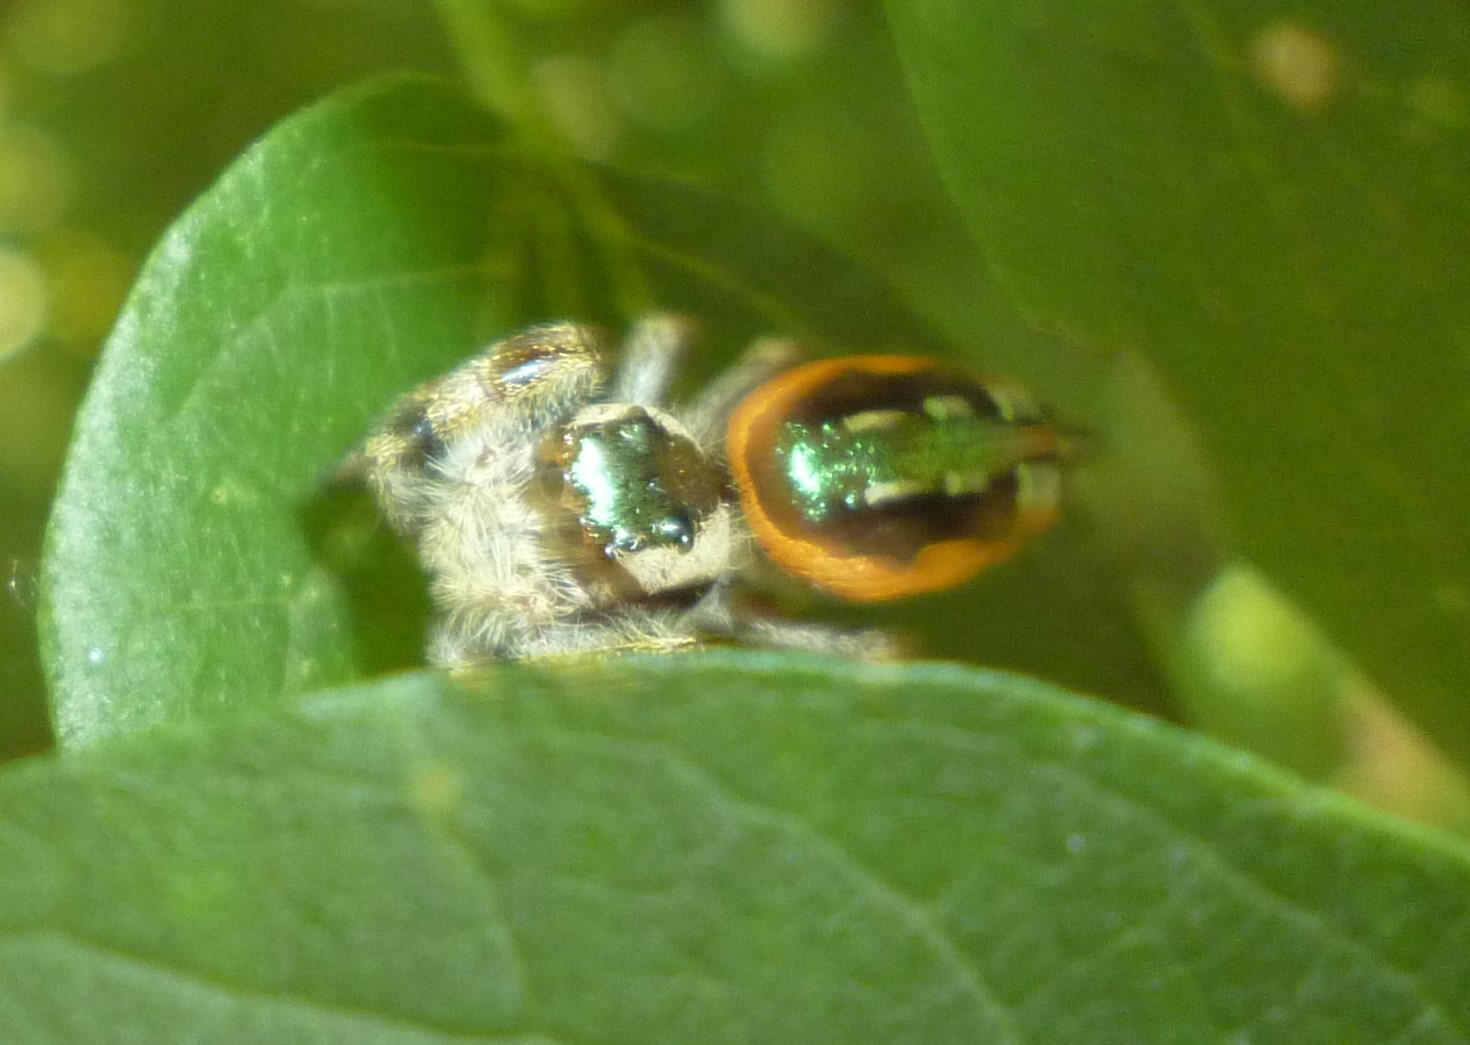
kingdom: Animalia
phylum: Arthropoda
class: Arachnida
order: Araneae
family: Salticidae
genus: Paraphidippus
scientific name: Paraphidippus aurantius
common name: Jumping spiders
